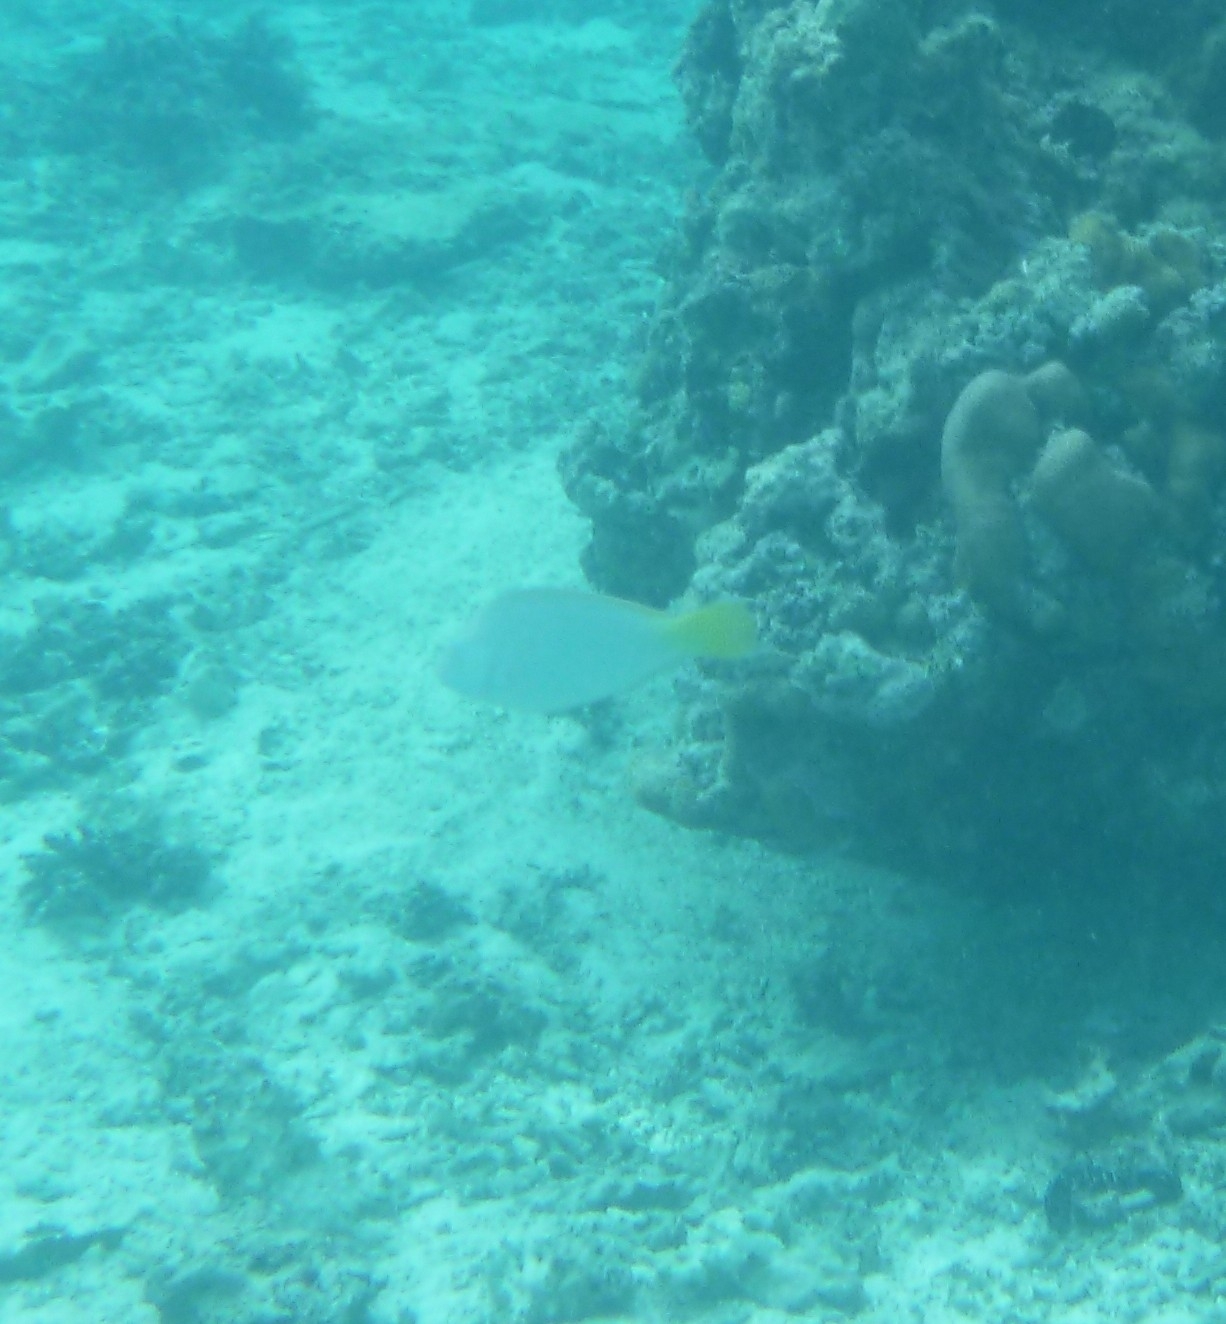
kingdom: Animalia
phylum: Chordata
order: Perciformes
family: Scaridae
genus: Hipposcarus
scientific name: Hipposcarus longiceps
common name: Pacific longnose parrotfish
